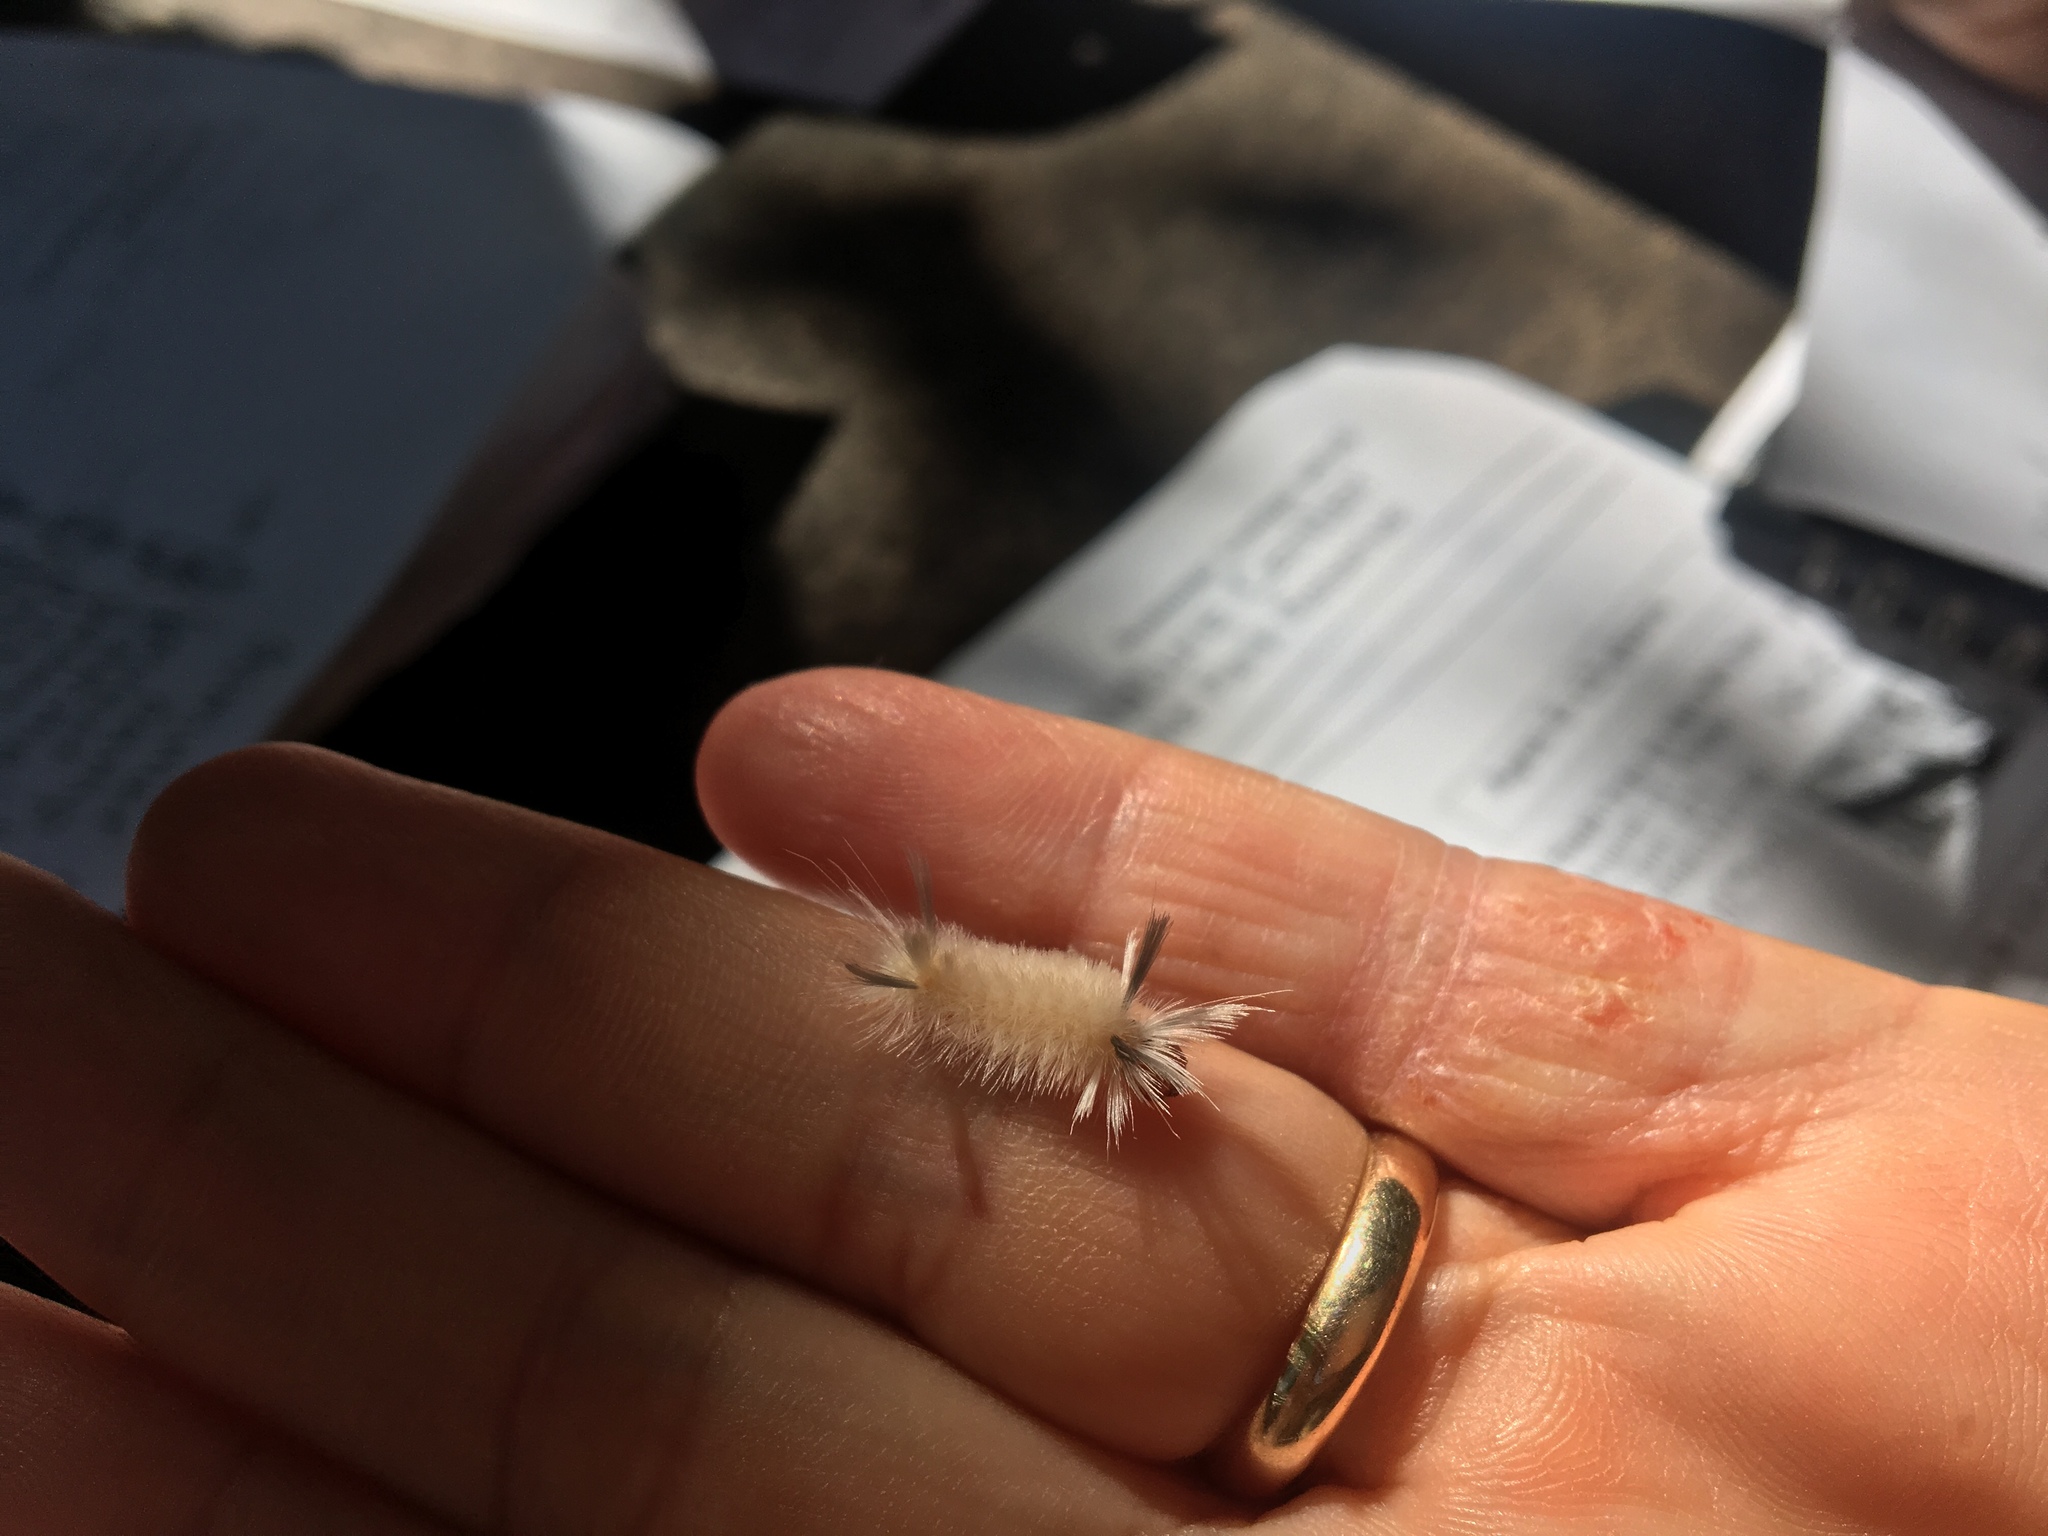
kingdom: Animalia
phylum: Arthropoda
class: Insecta
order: Lepidoptera
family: Erebidae
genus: Halysidota
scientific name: Halysidota tessellaris
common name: Banded tussock moth
